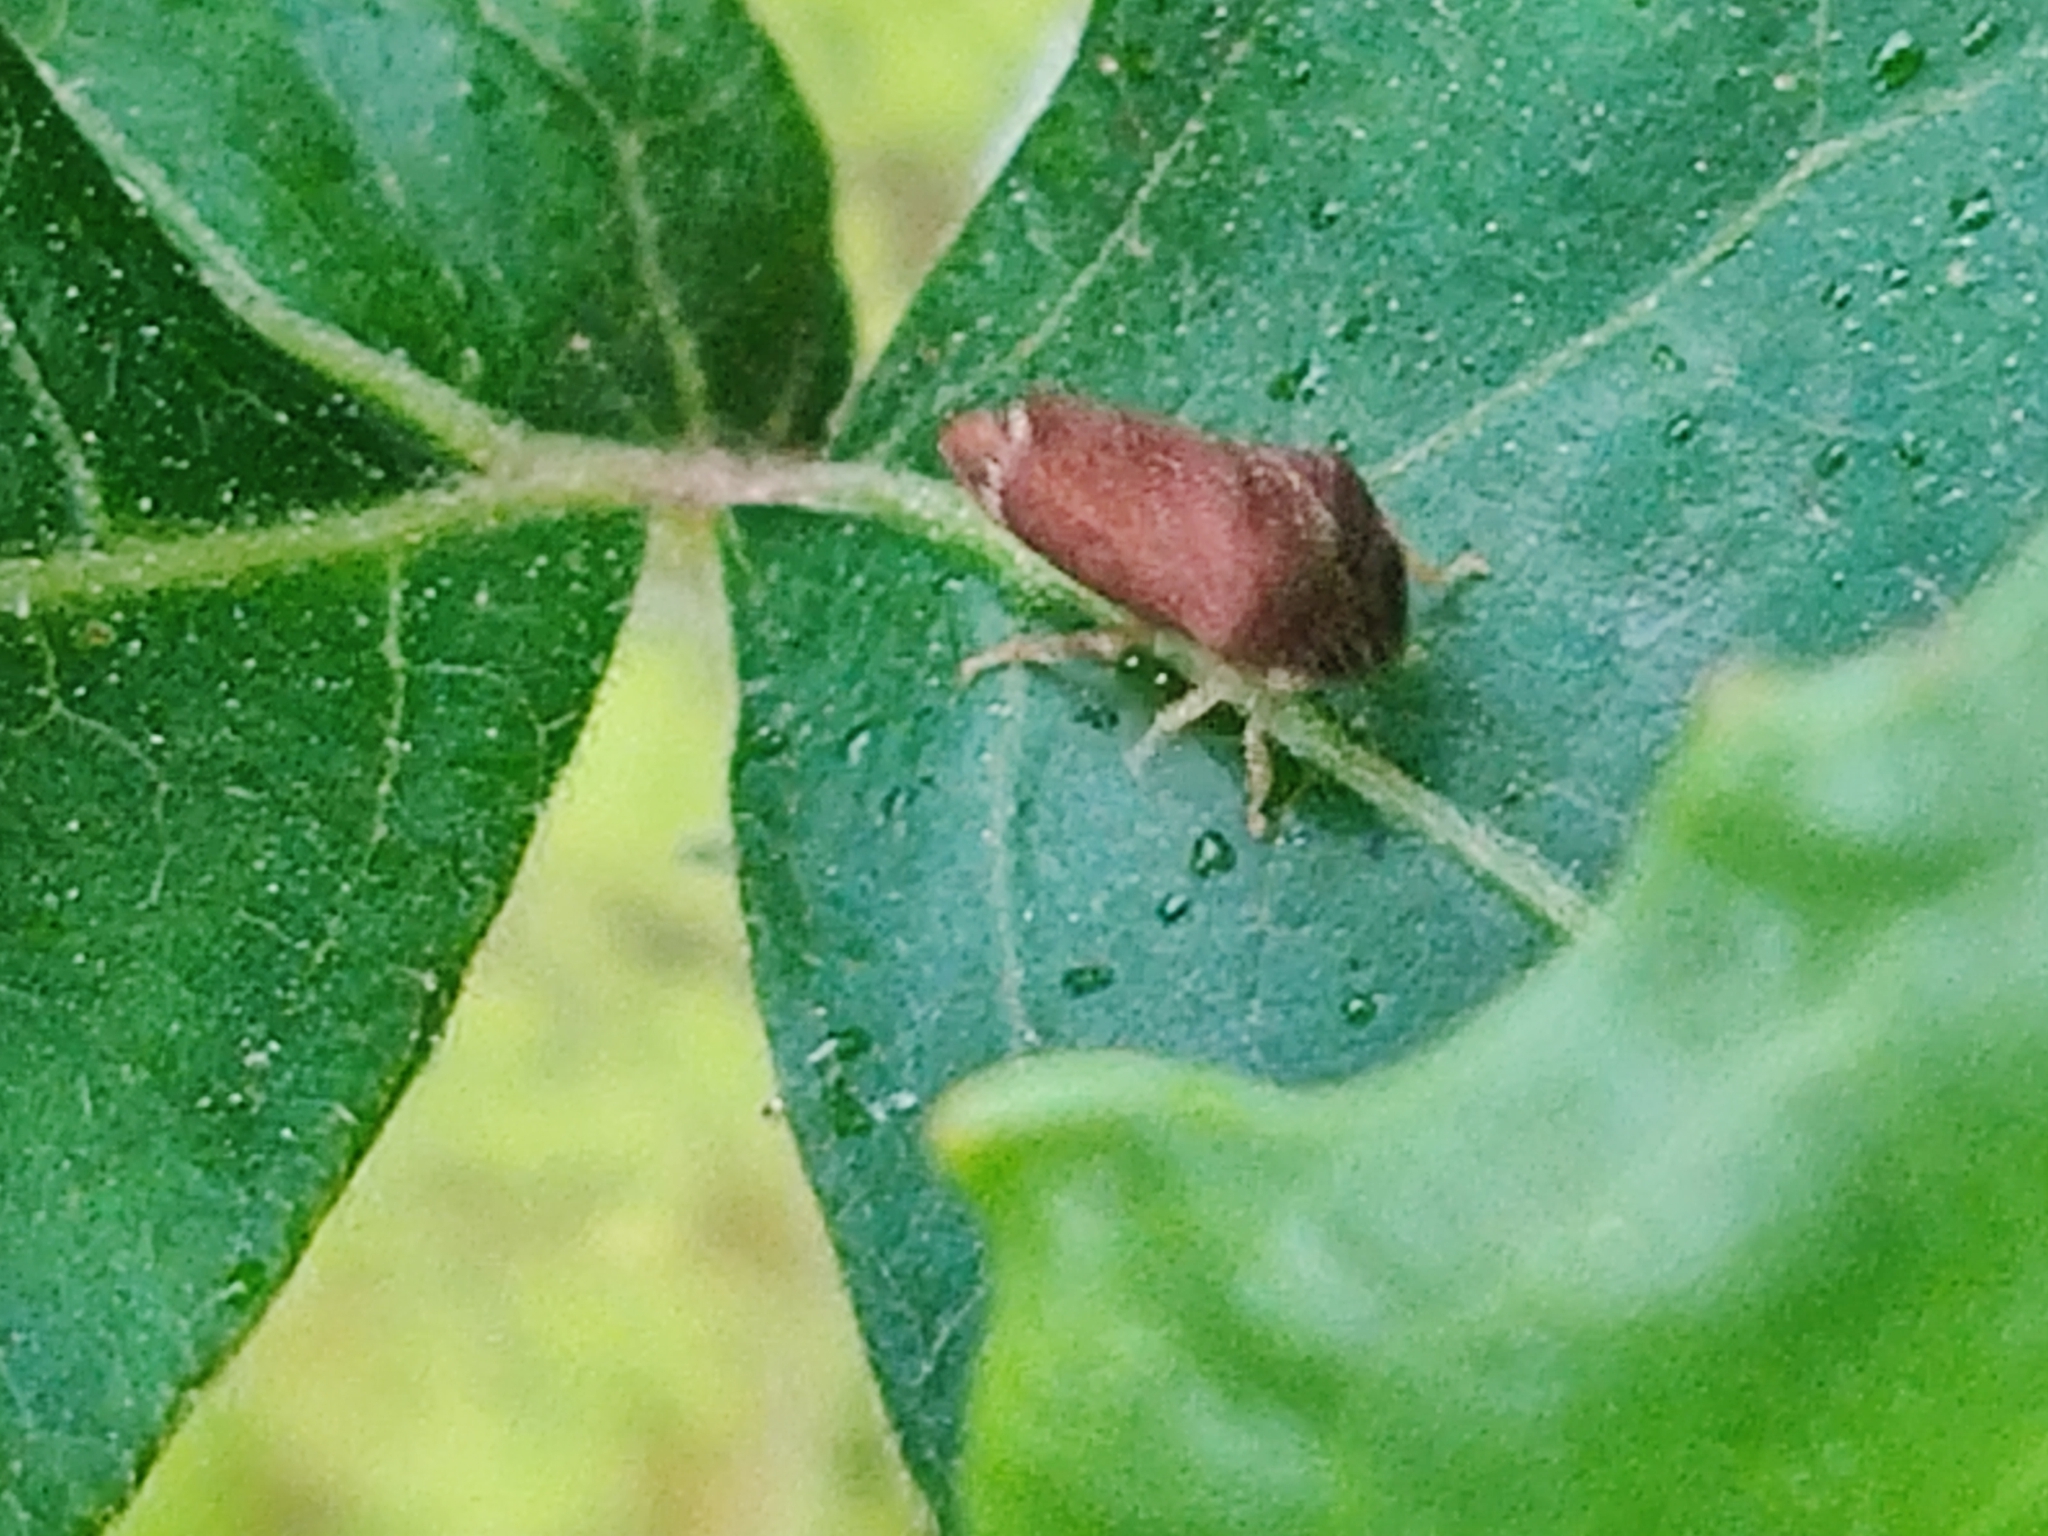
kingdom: Animalia
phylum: Arthropoda
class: Insecta
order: Hemiptera
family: Membracidae
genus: Entylia
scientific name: Entylia carinata
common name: Keeled treehopper
